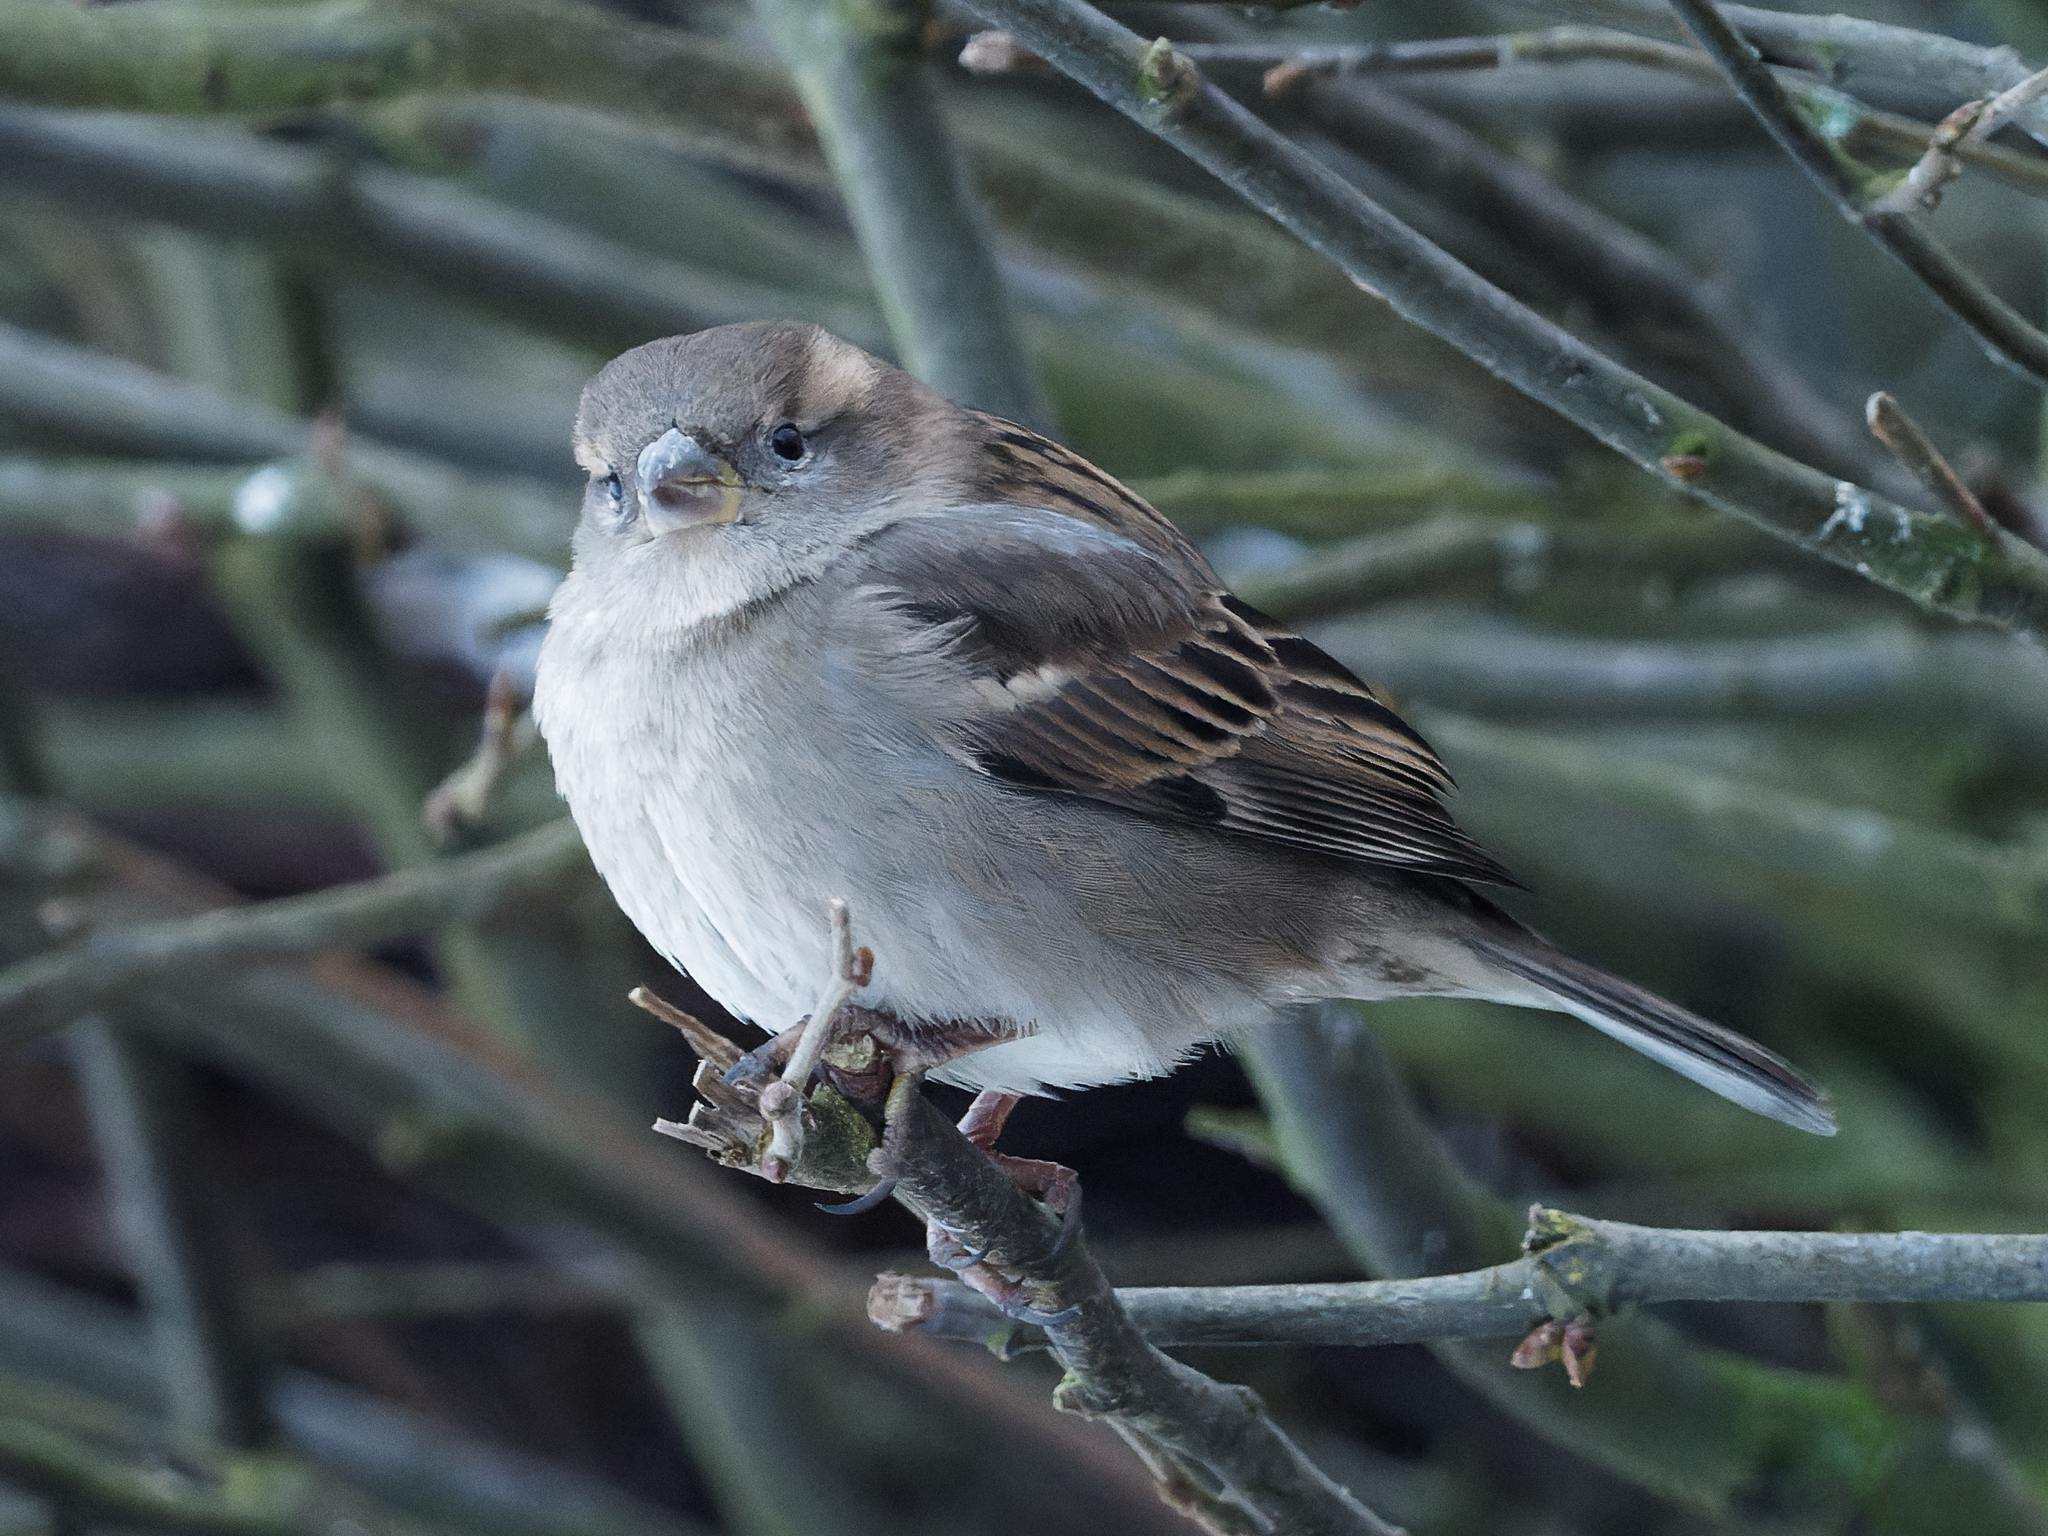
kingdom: Animalia
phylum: Chordata
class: Aves
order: Passeriformes
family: Passeridae
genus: Passer
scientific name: Passer domesticus
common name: House sparrow
